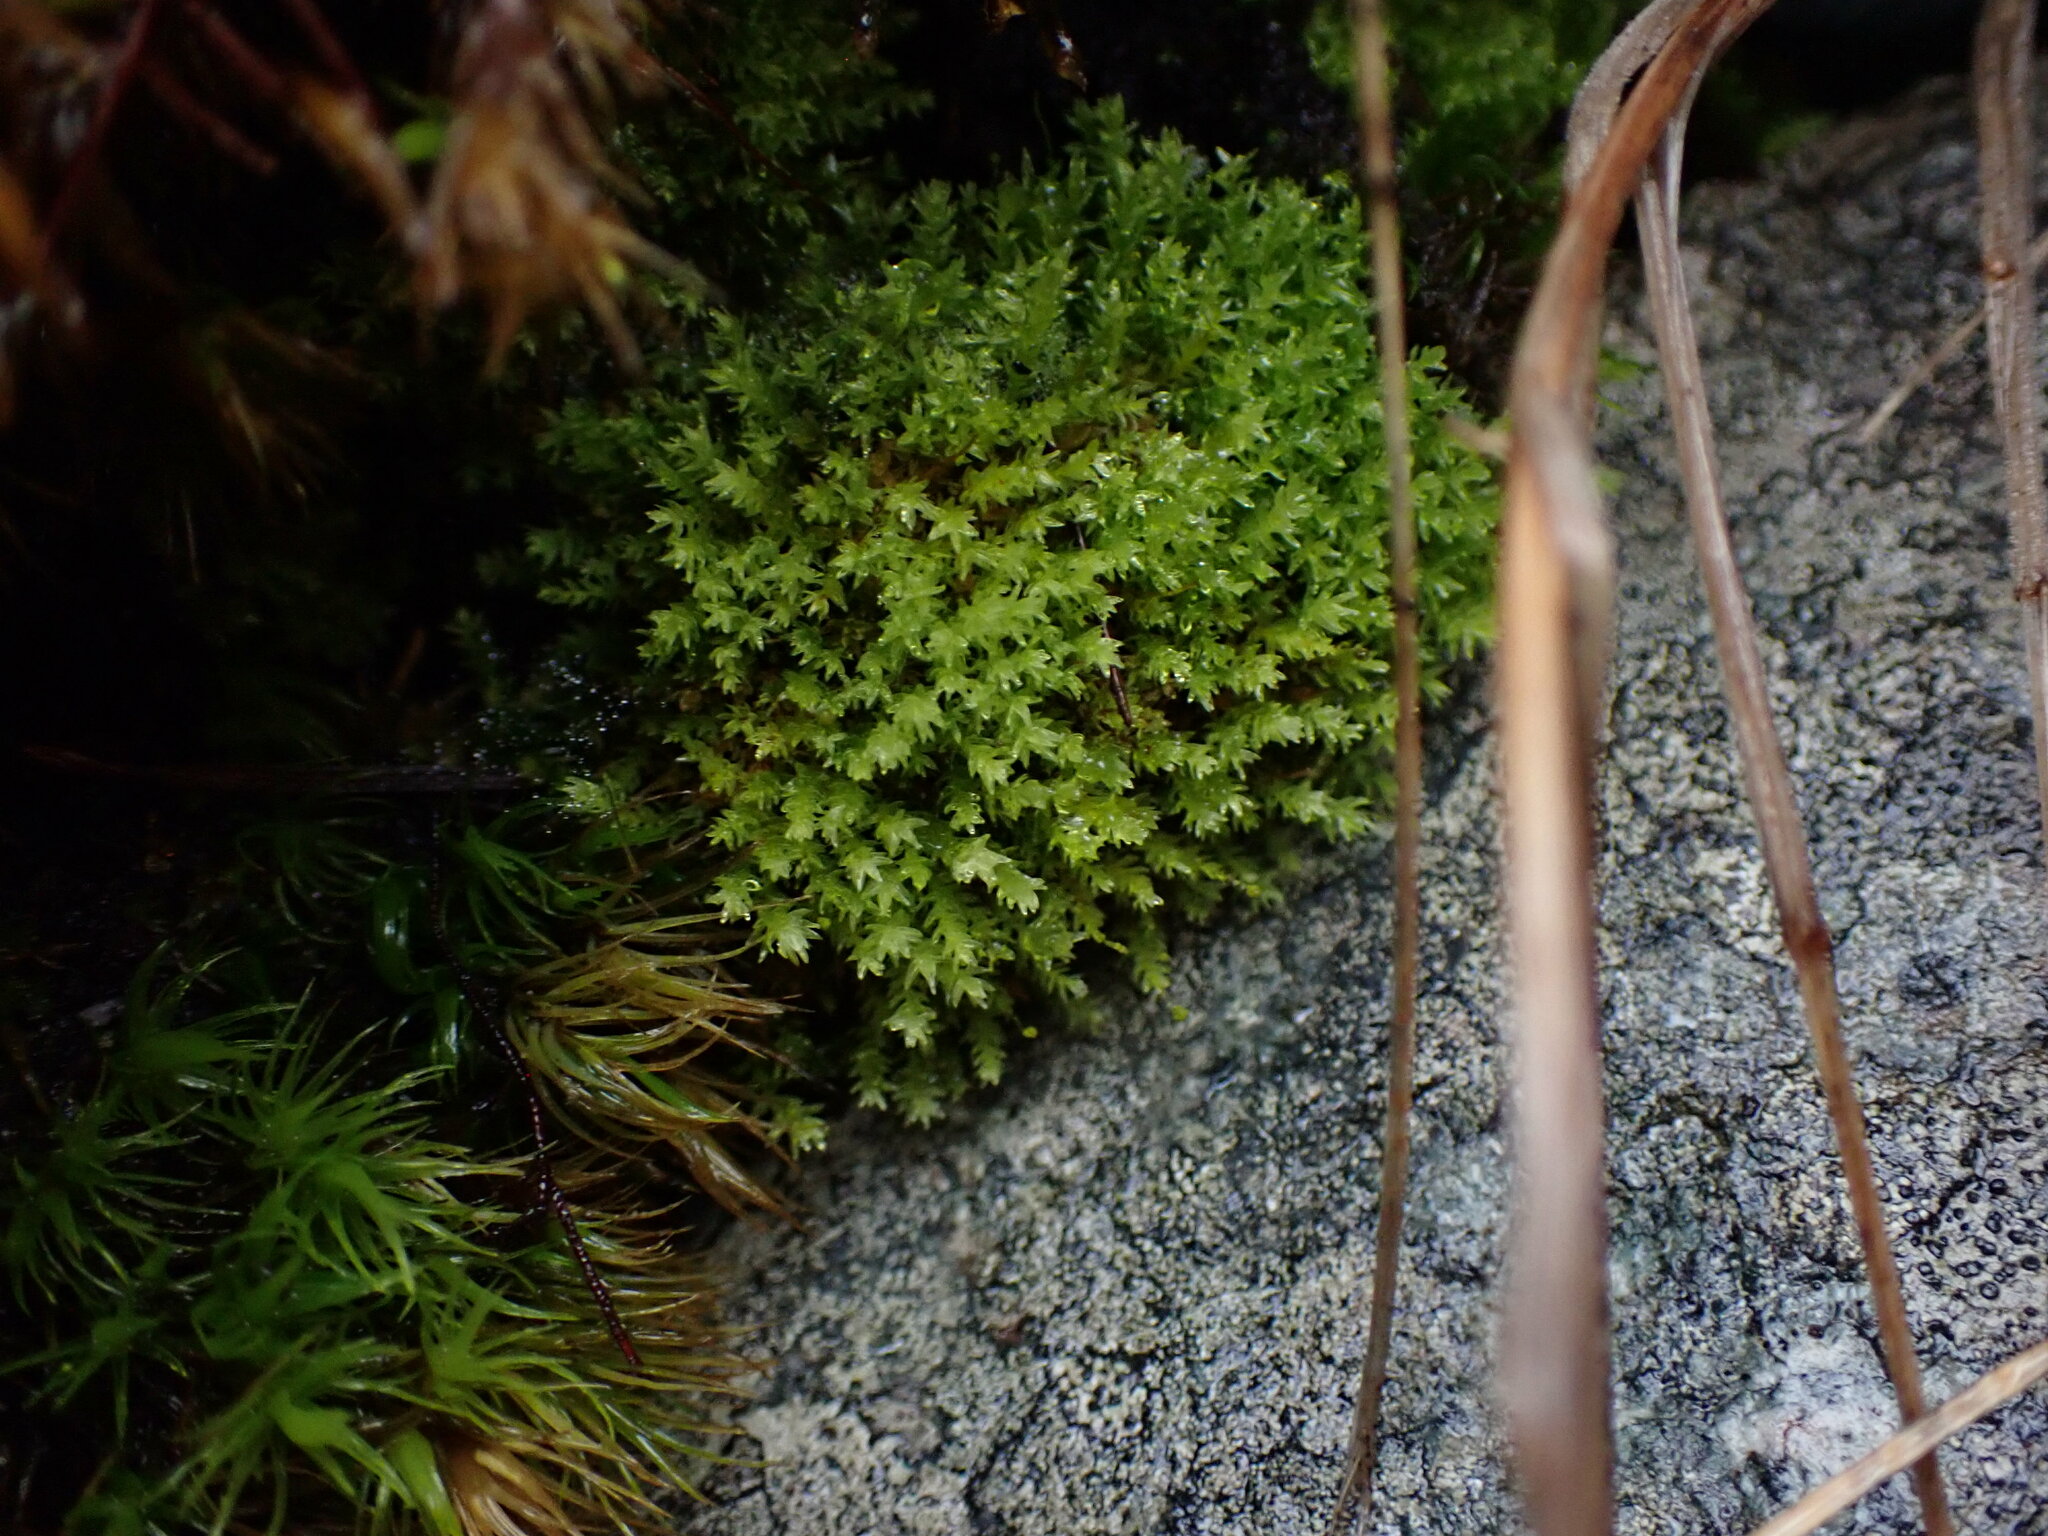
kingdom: Plantae
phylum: Bryophyta
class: Bryopsida
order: Aulacomniales
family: Aulacomniaceae
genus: Aulacomnium
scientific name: Aulacomnium androgynum
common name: Little groove moss
